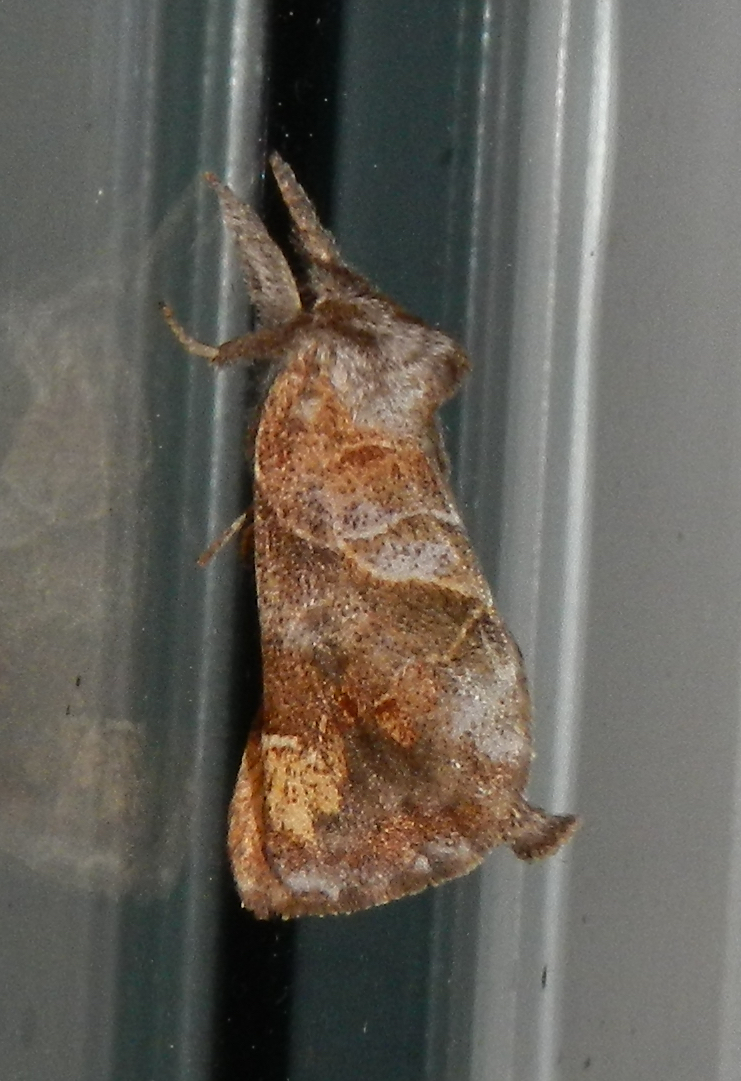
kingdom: Animalia
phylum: Arthropoda
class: Insecta
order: Lepidoptera
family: Notodontidae
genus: Clostera
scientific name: Clostera strigosa
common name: Striped chocolate-tip moth
